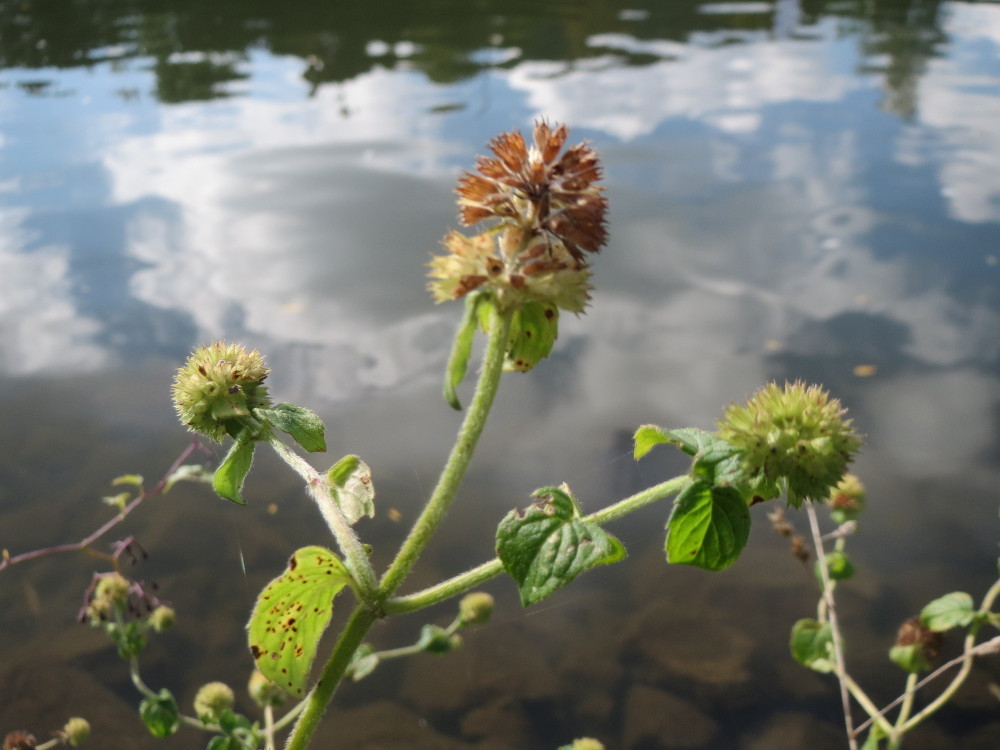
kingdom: Plantae
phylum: Tracheophyta
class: Magnoliopsida
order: Lamiales
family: Lamiaceae
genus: Mentha
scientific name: Mentha aquatica
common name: Water mint
